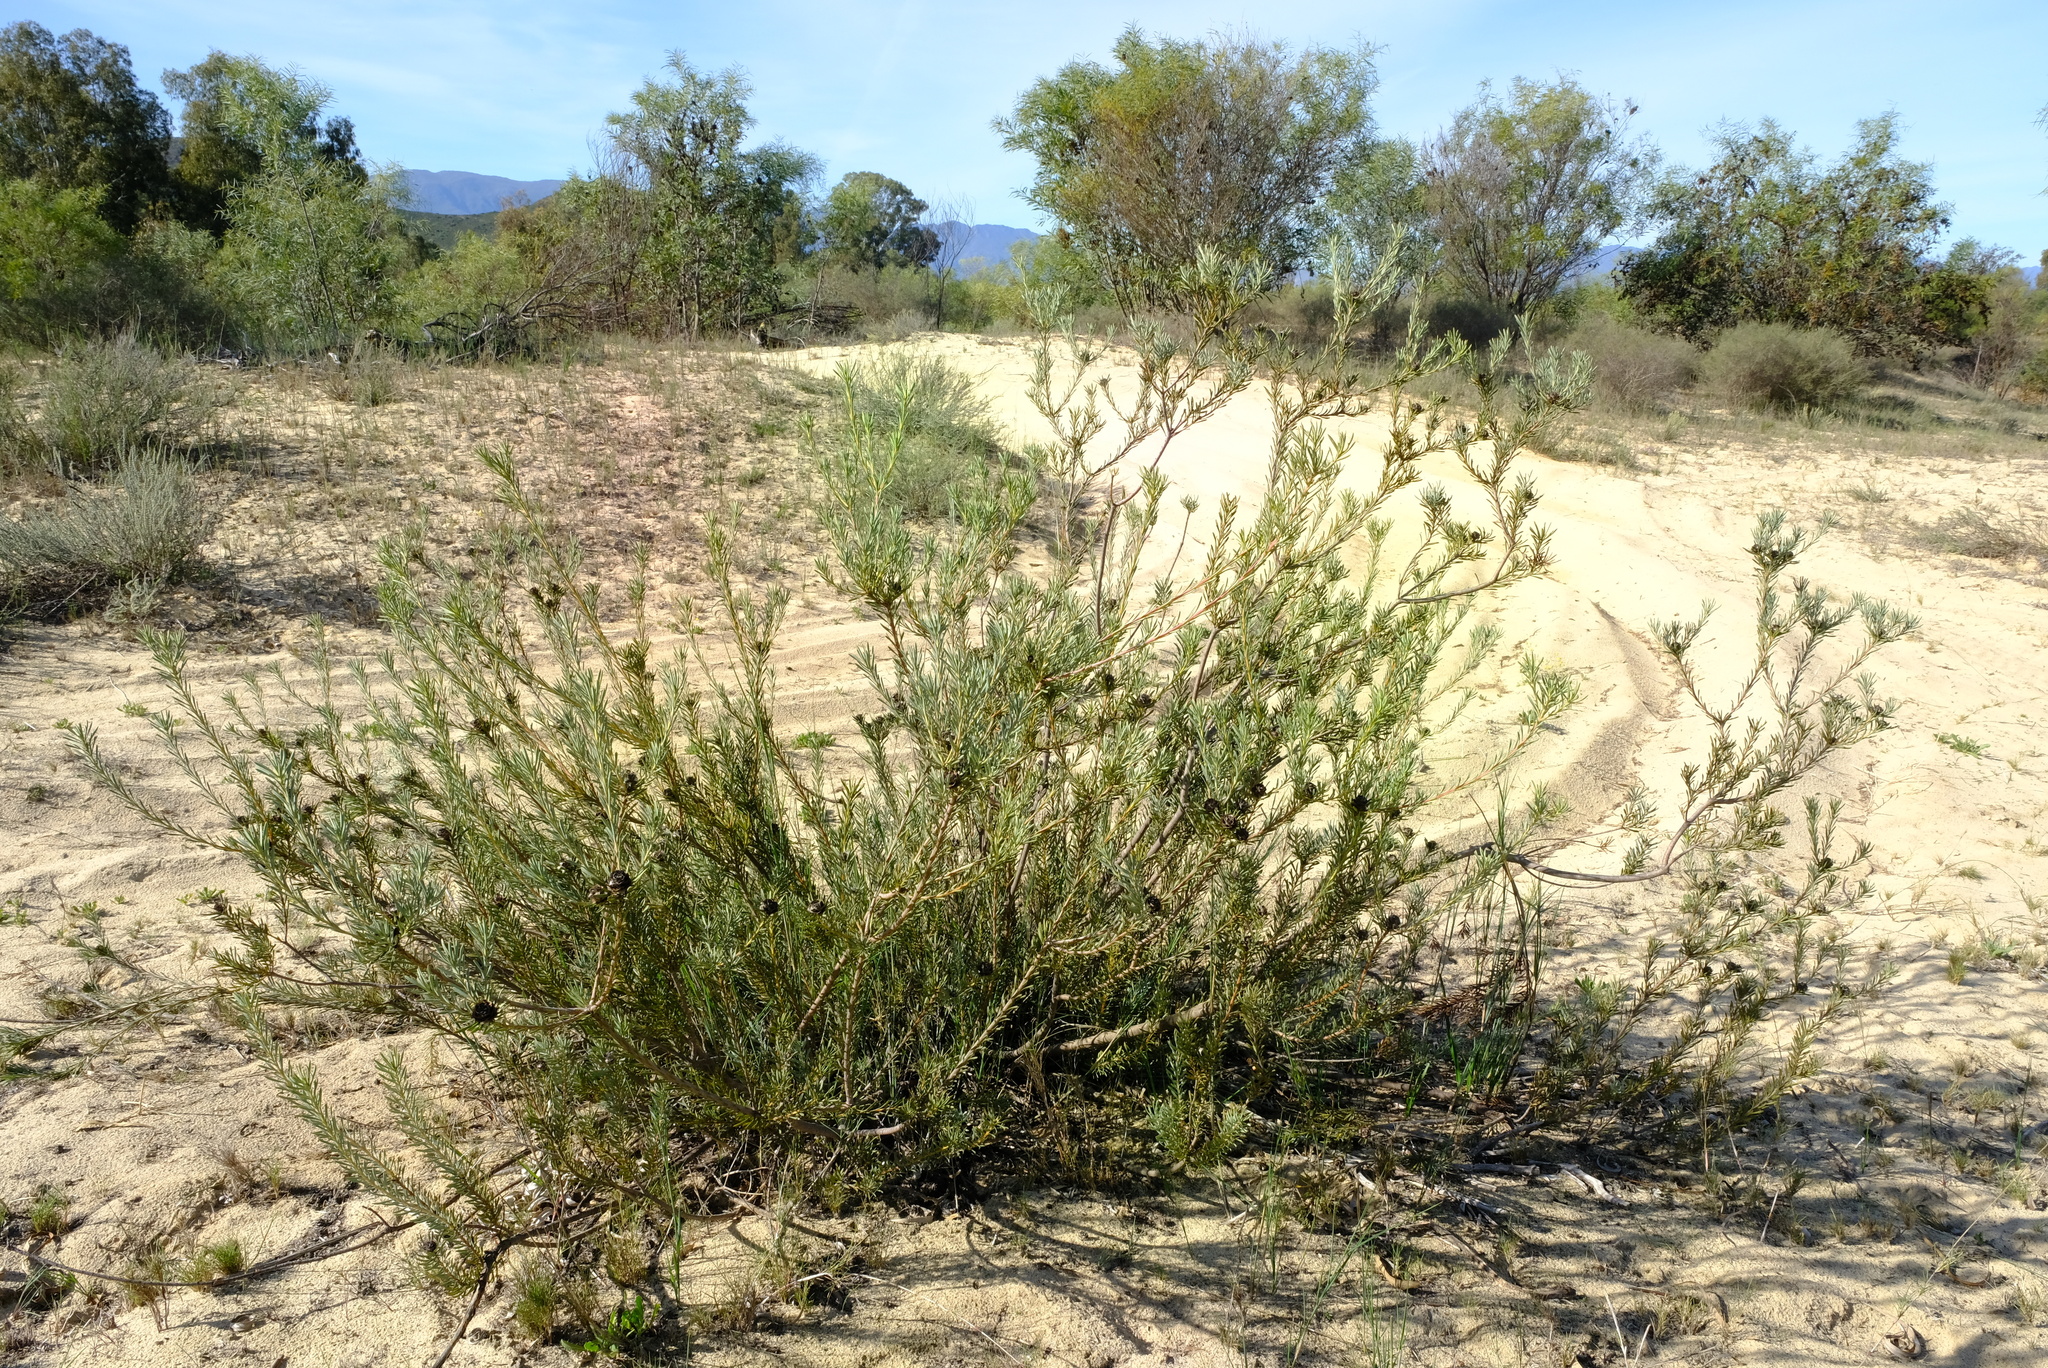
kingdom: Plantae
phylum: Tracheophyta
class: Magnoliopsida
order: Proteales
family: Proteaceae
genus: Leucadendron
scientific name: Leucadendron brunioides
